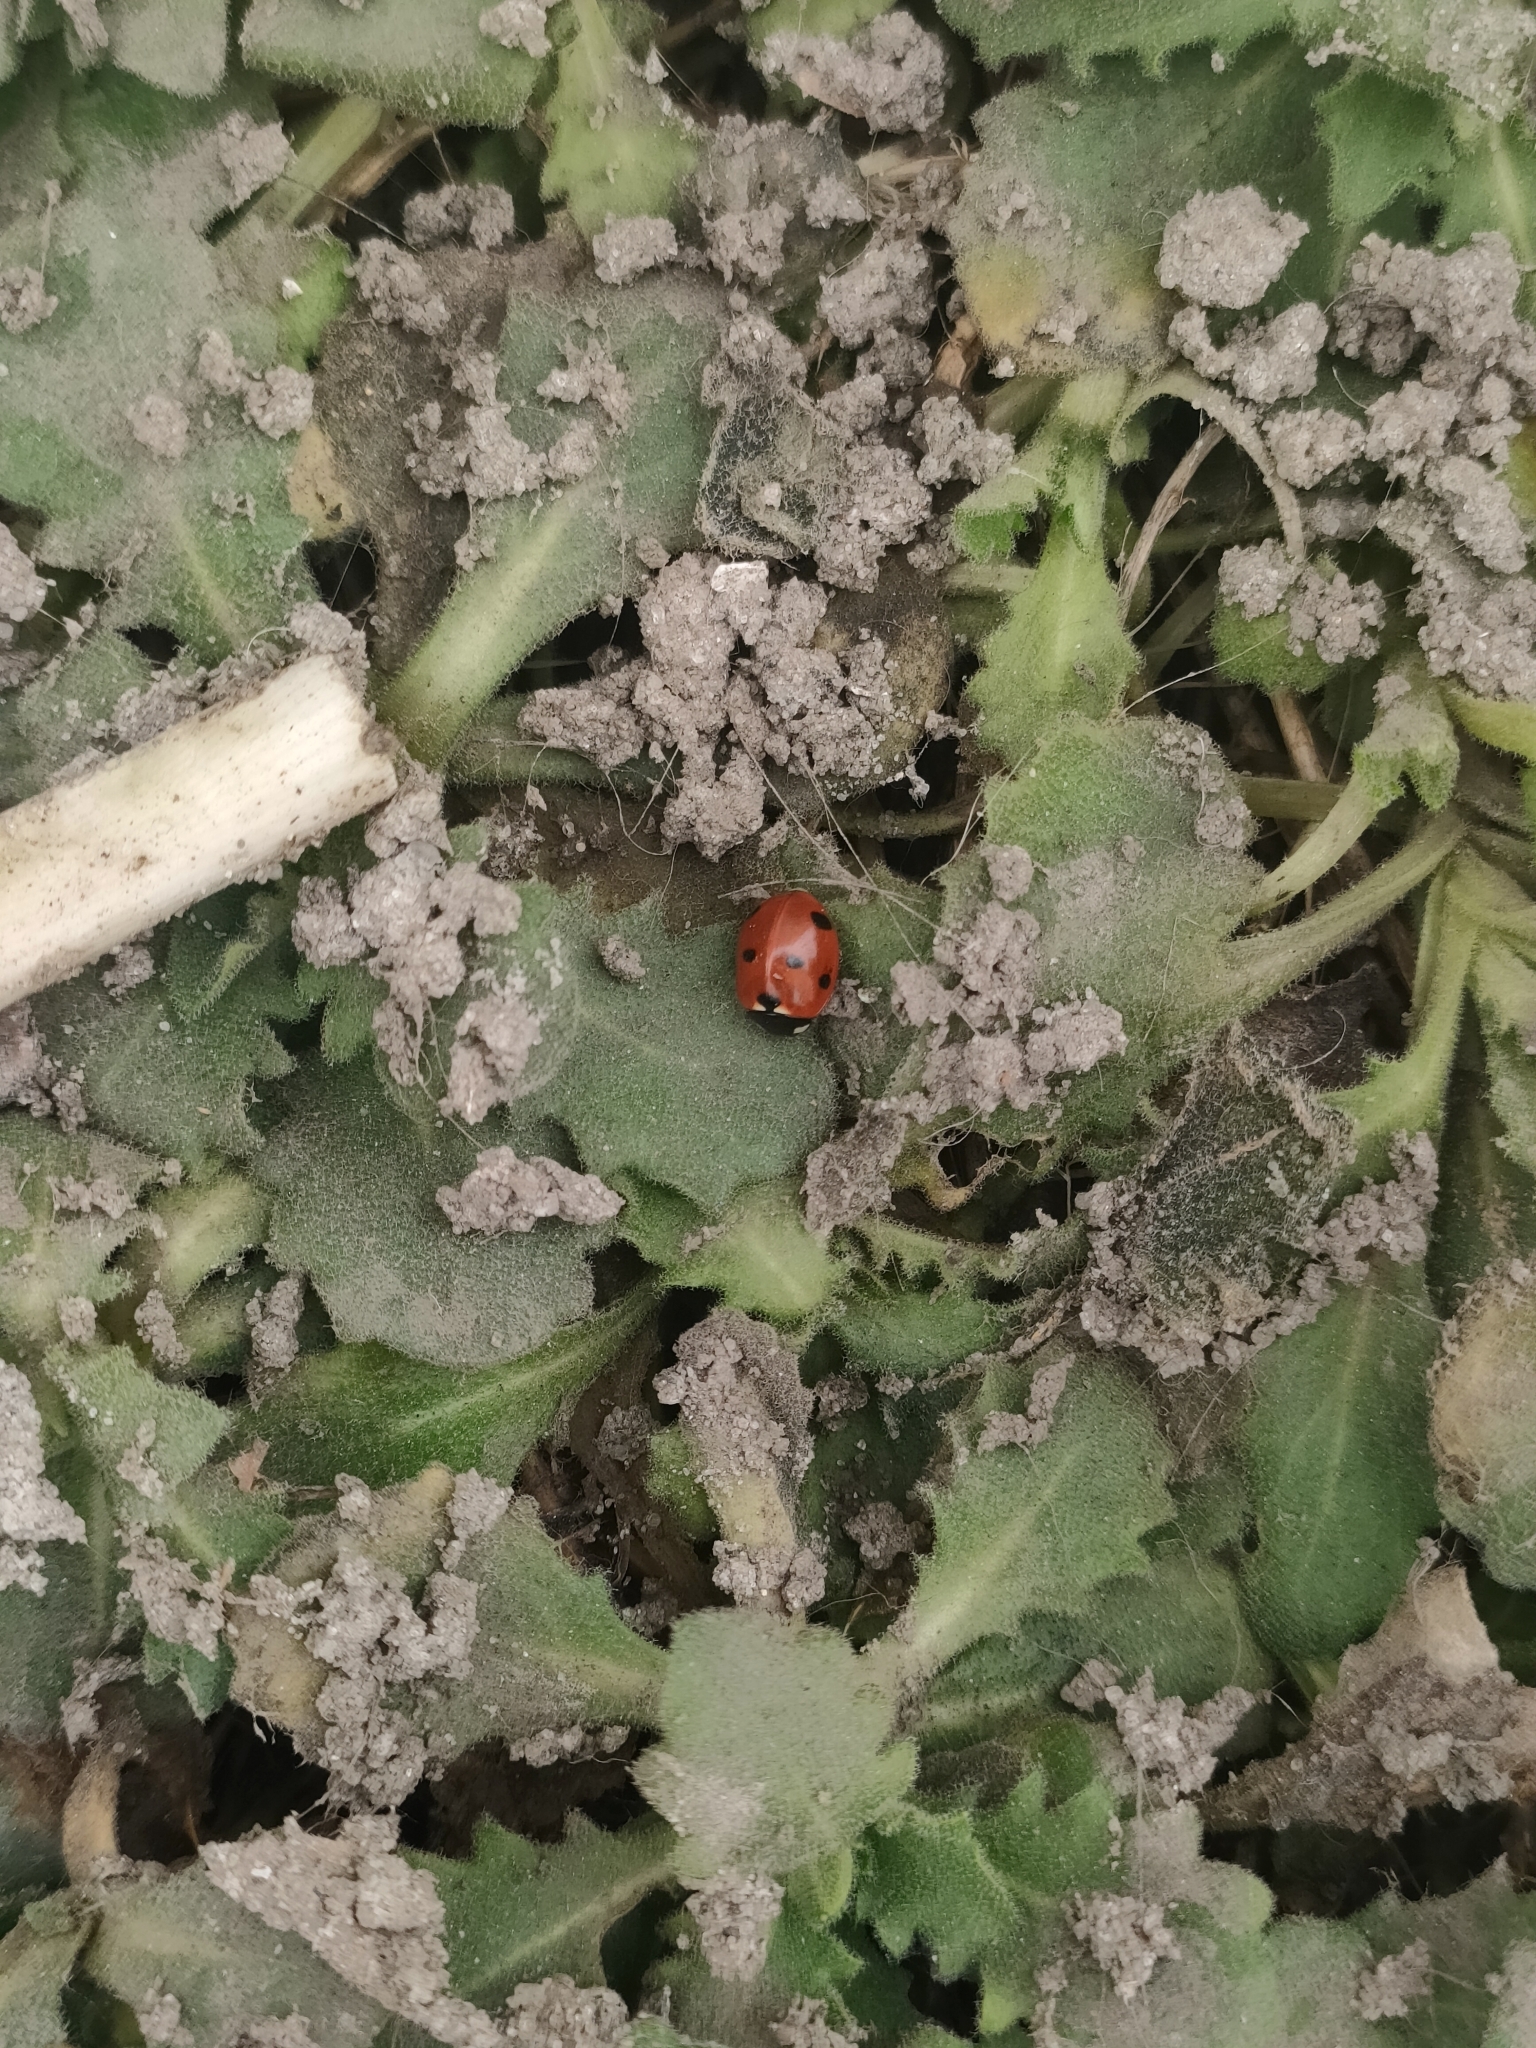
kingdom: Animalia
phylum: Arthropoda
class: Insecta
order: Coleoptera
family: Coccinellidae
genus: Coccinella
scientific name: Coccinella septempunctata
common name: Sevenspotted lady beetle
